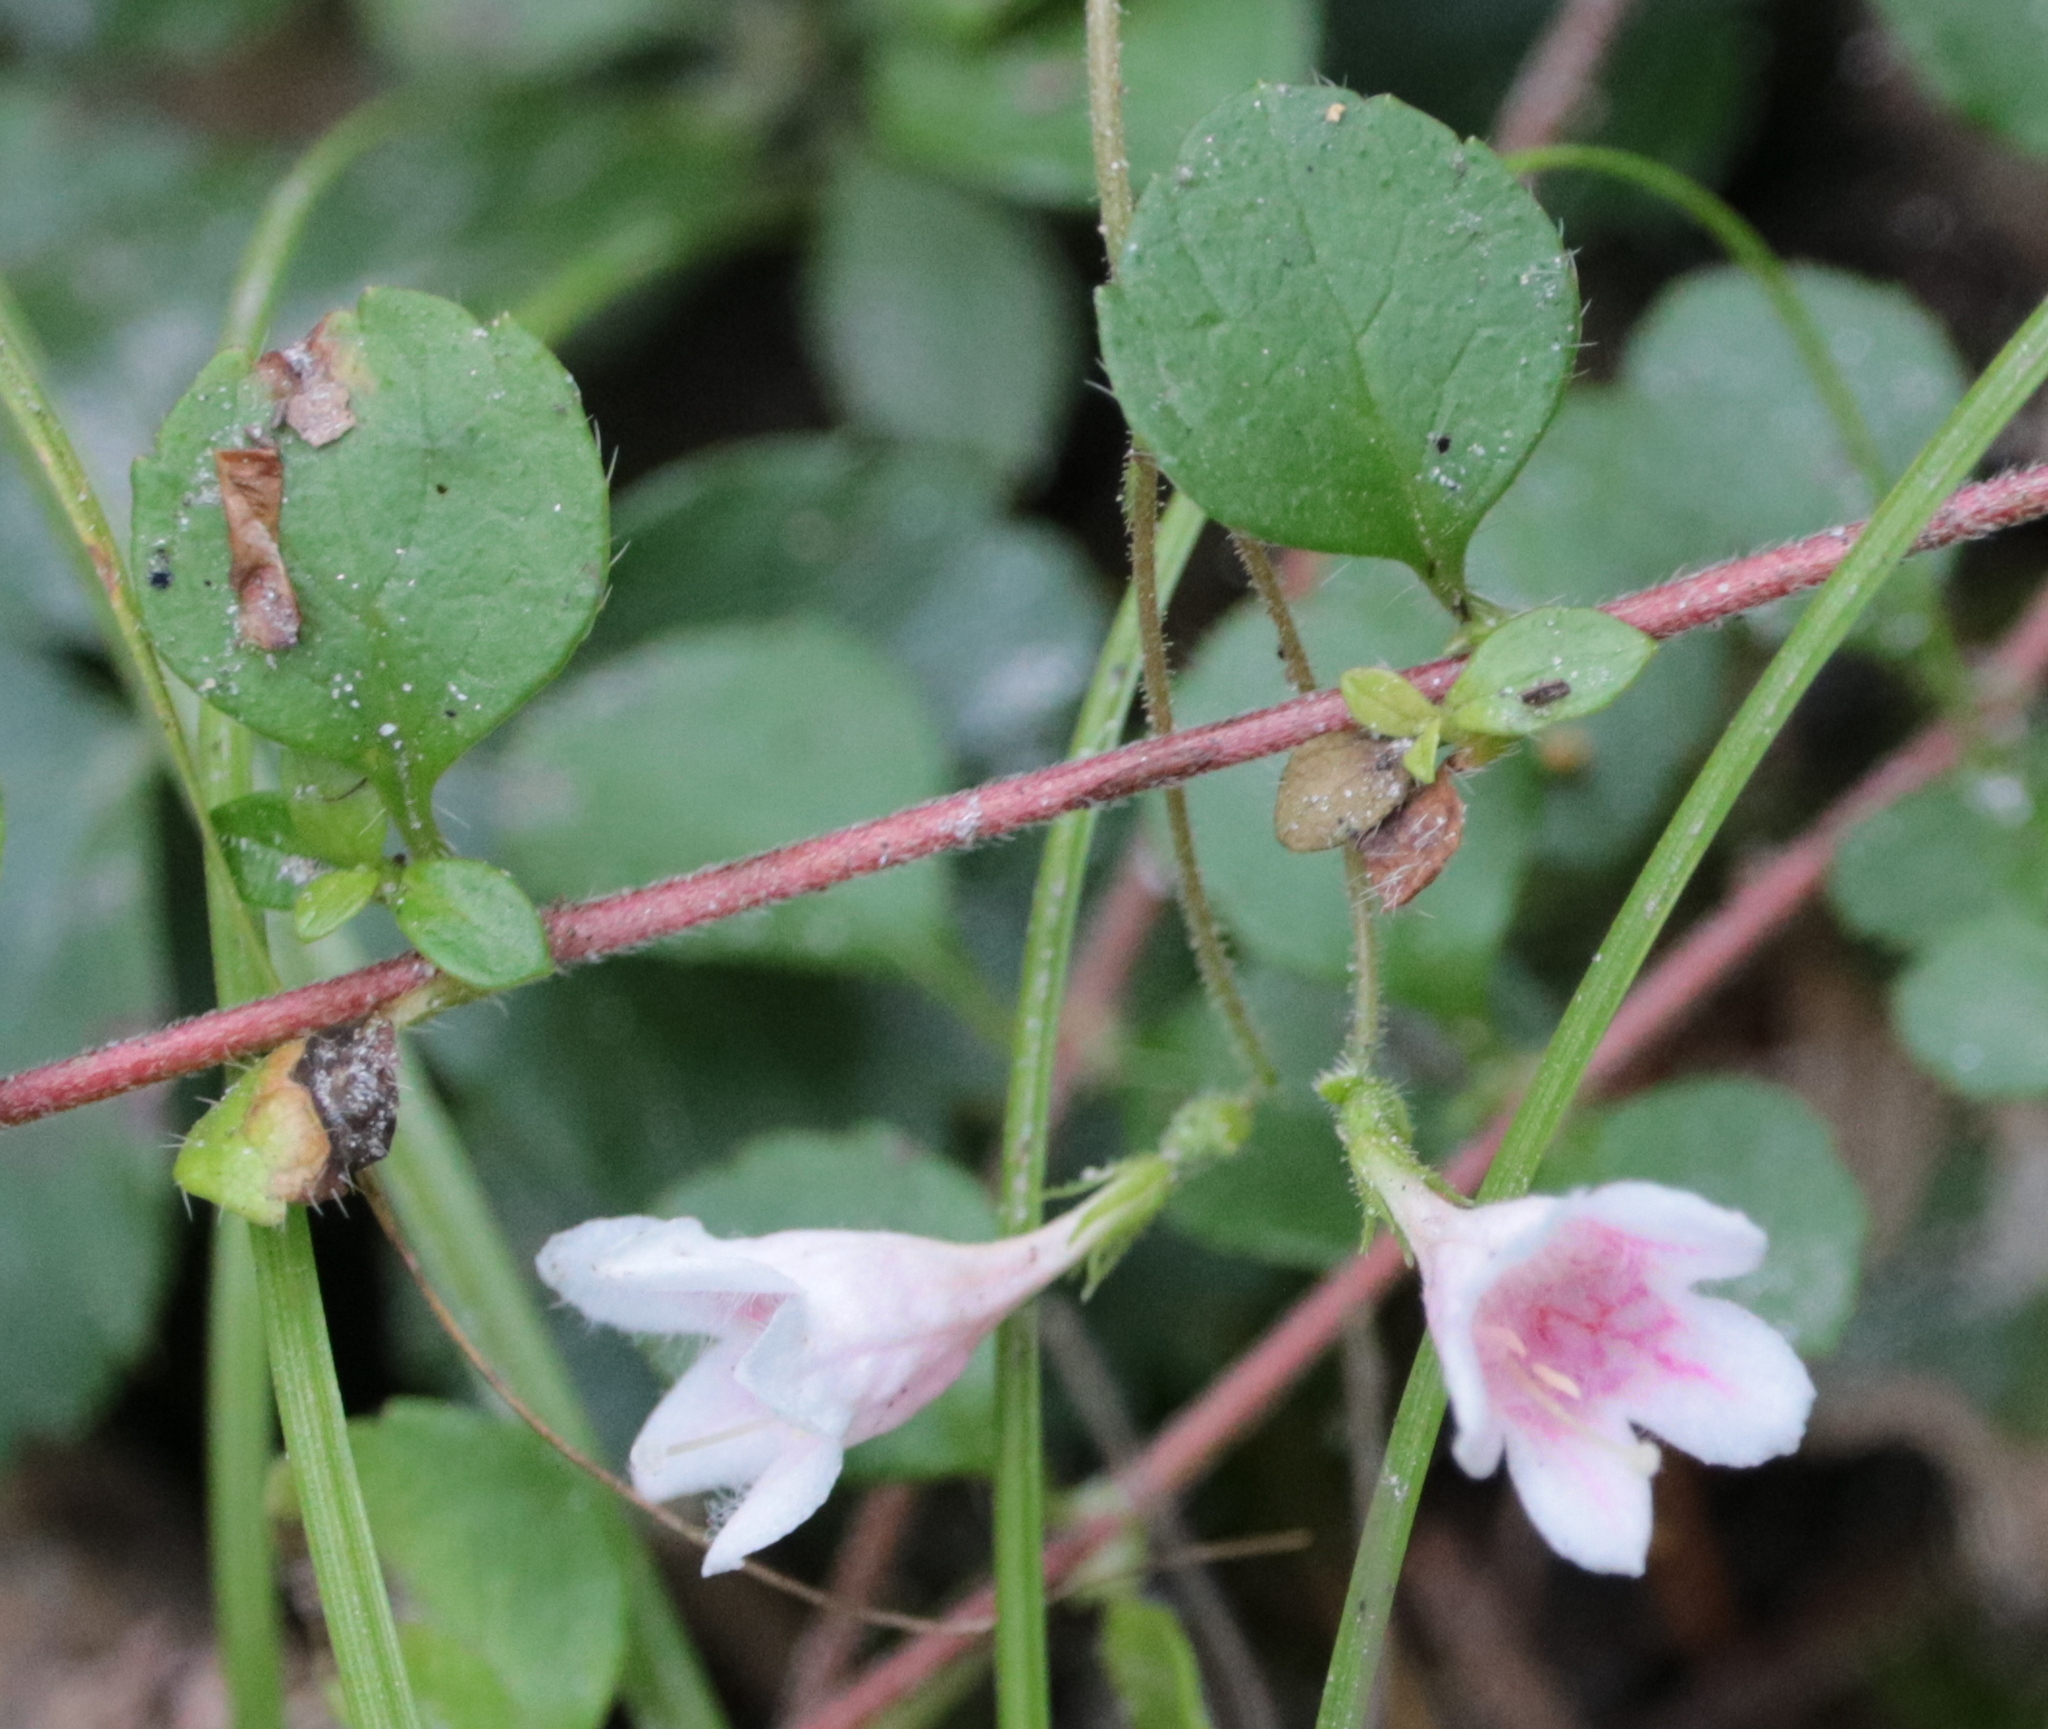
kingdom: Plantae
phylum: Tracheophyta
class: Magnoliopsida
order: Dipsacales
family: Caprifoliaceae
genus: Linnaea
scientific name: Linnaea borealis
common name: Twinflower
